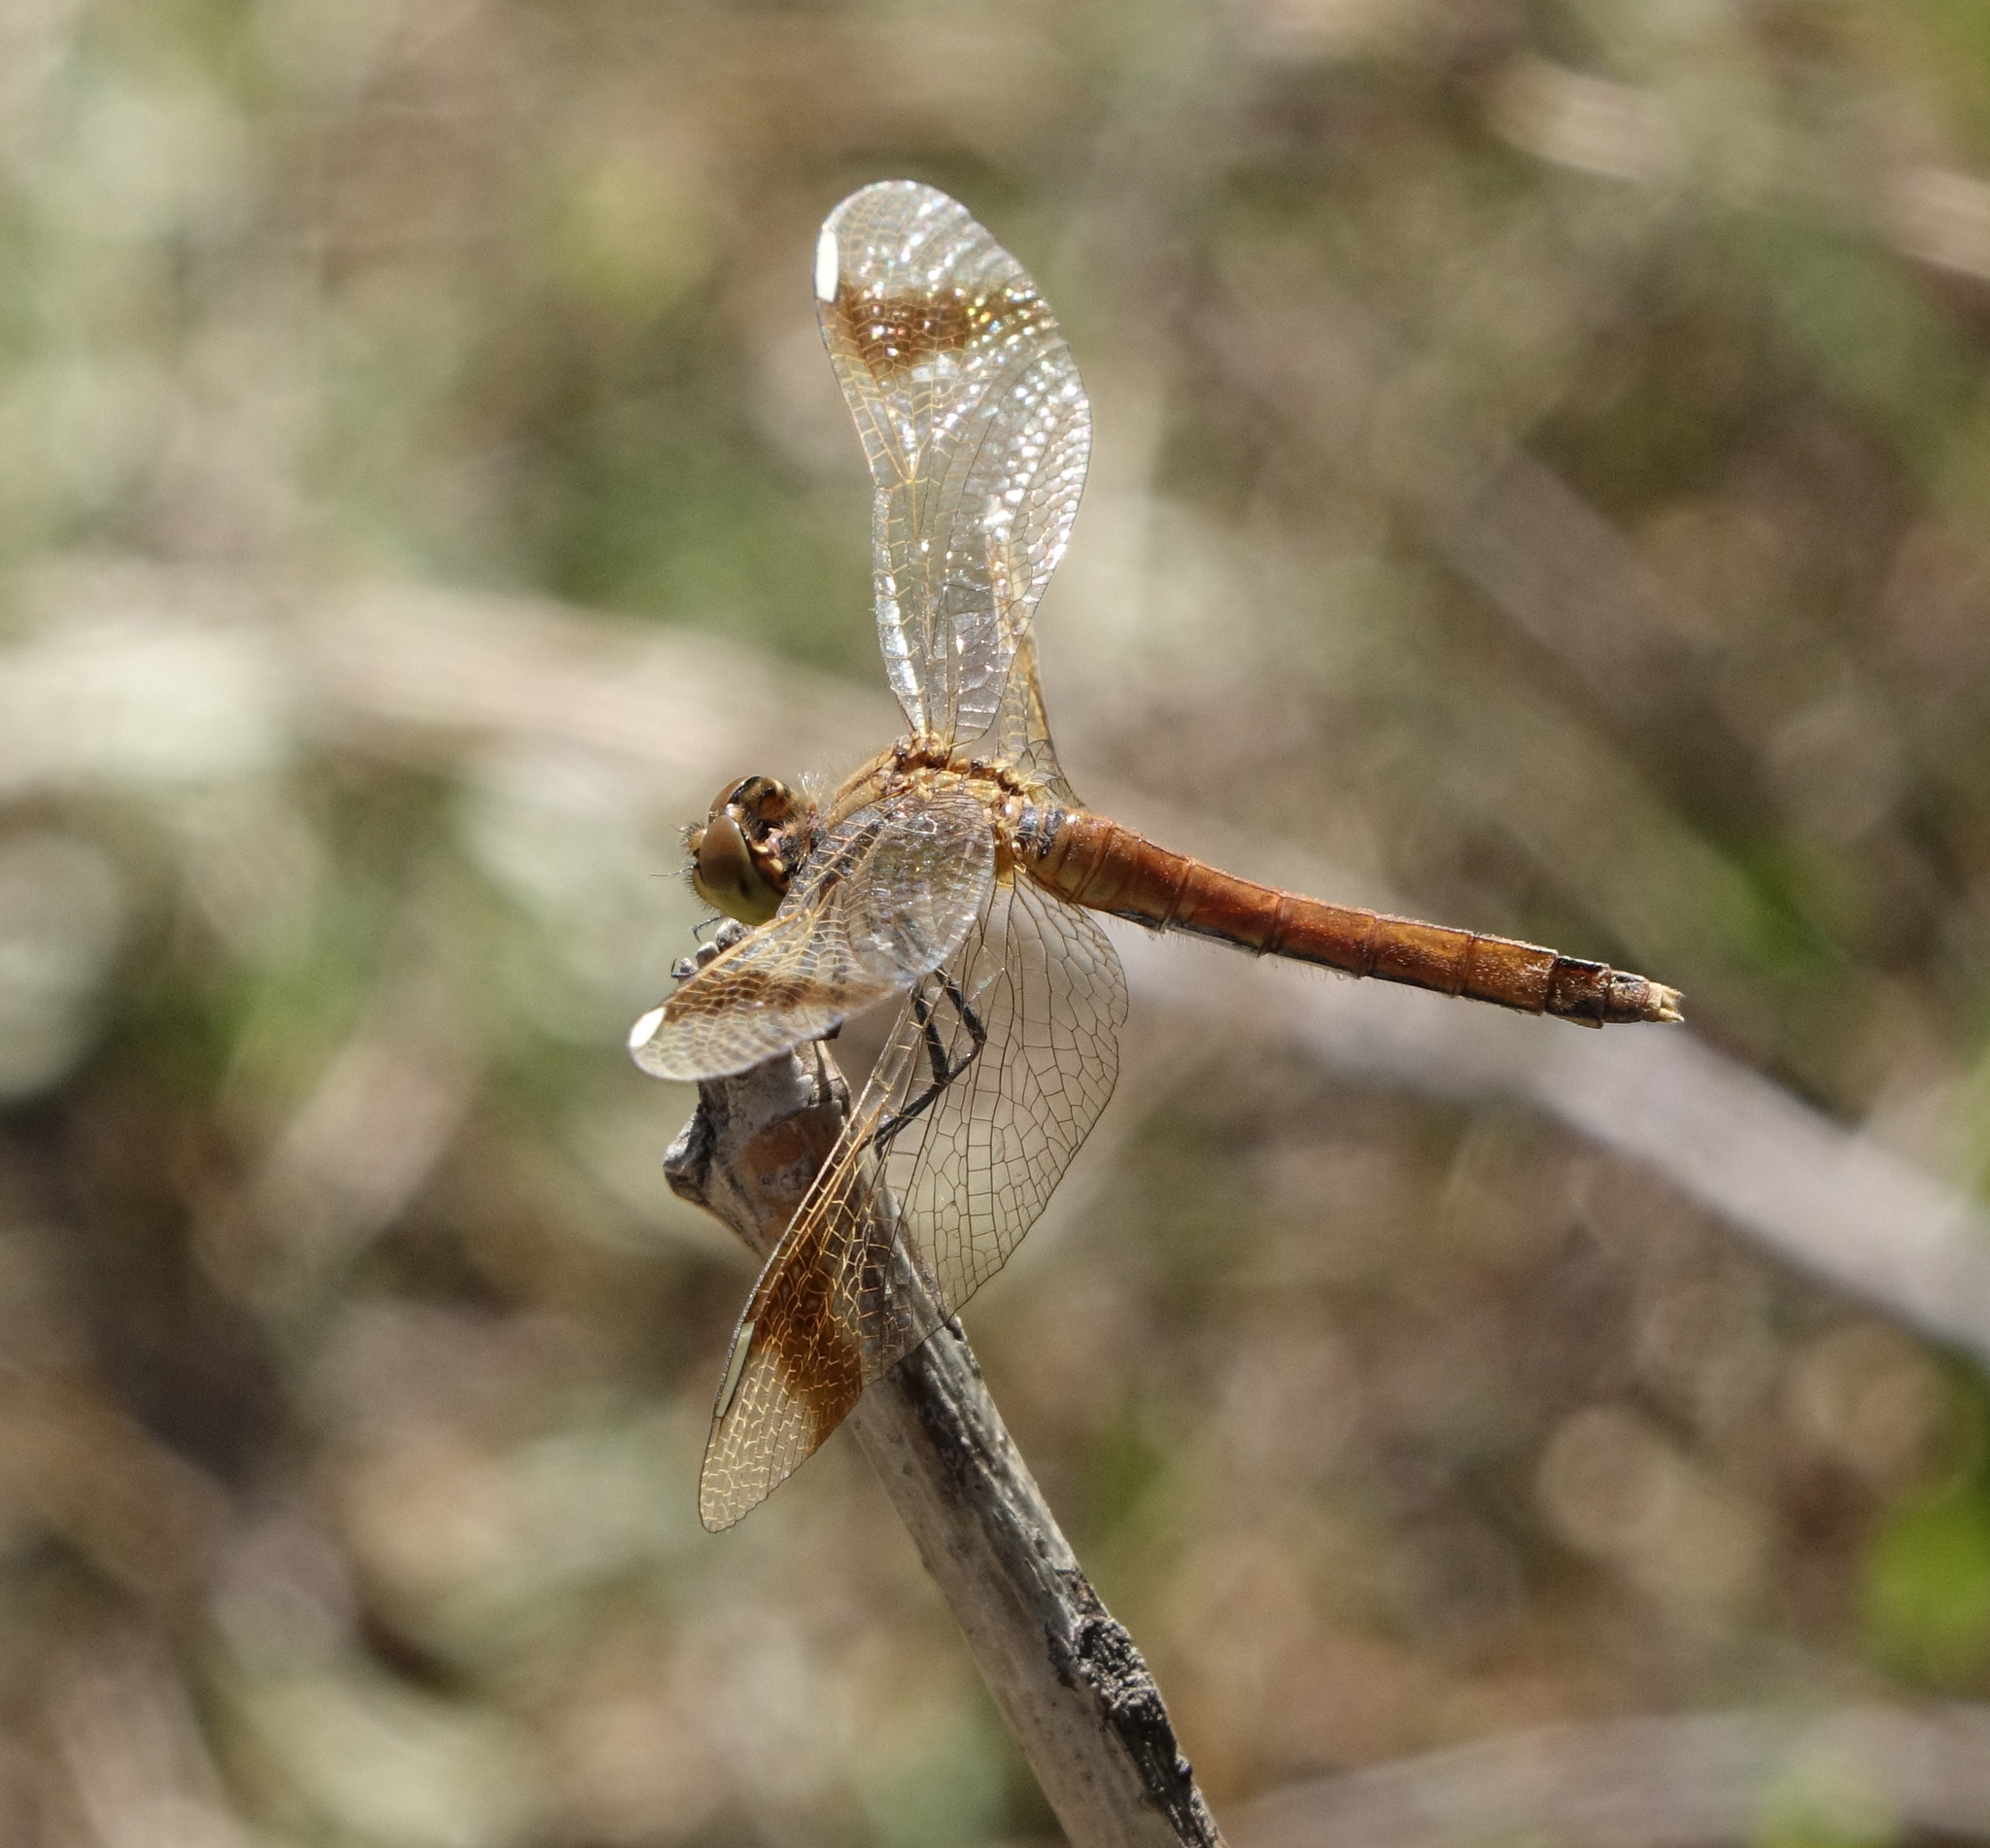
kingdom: Animalia
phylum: Arthropoda
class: Insecta
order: Odonata
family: Libellulidae
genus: Sympetrum
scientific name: Sympetrum pedemontanum
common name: Banded darter
